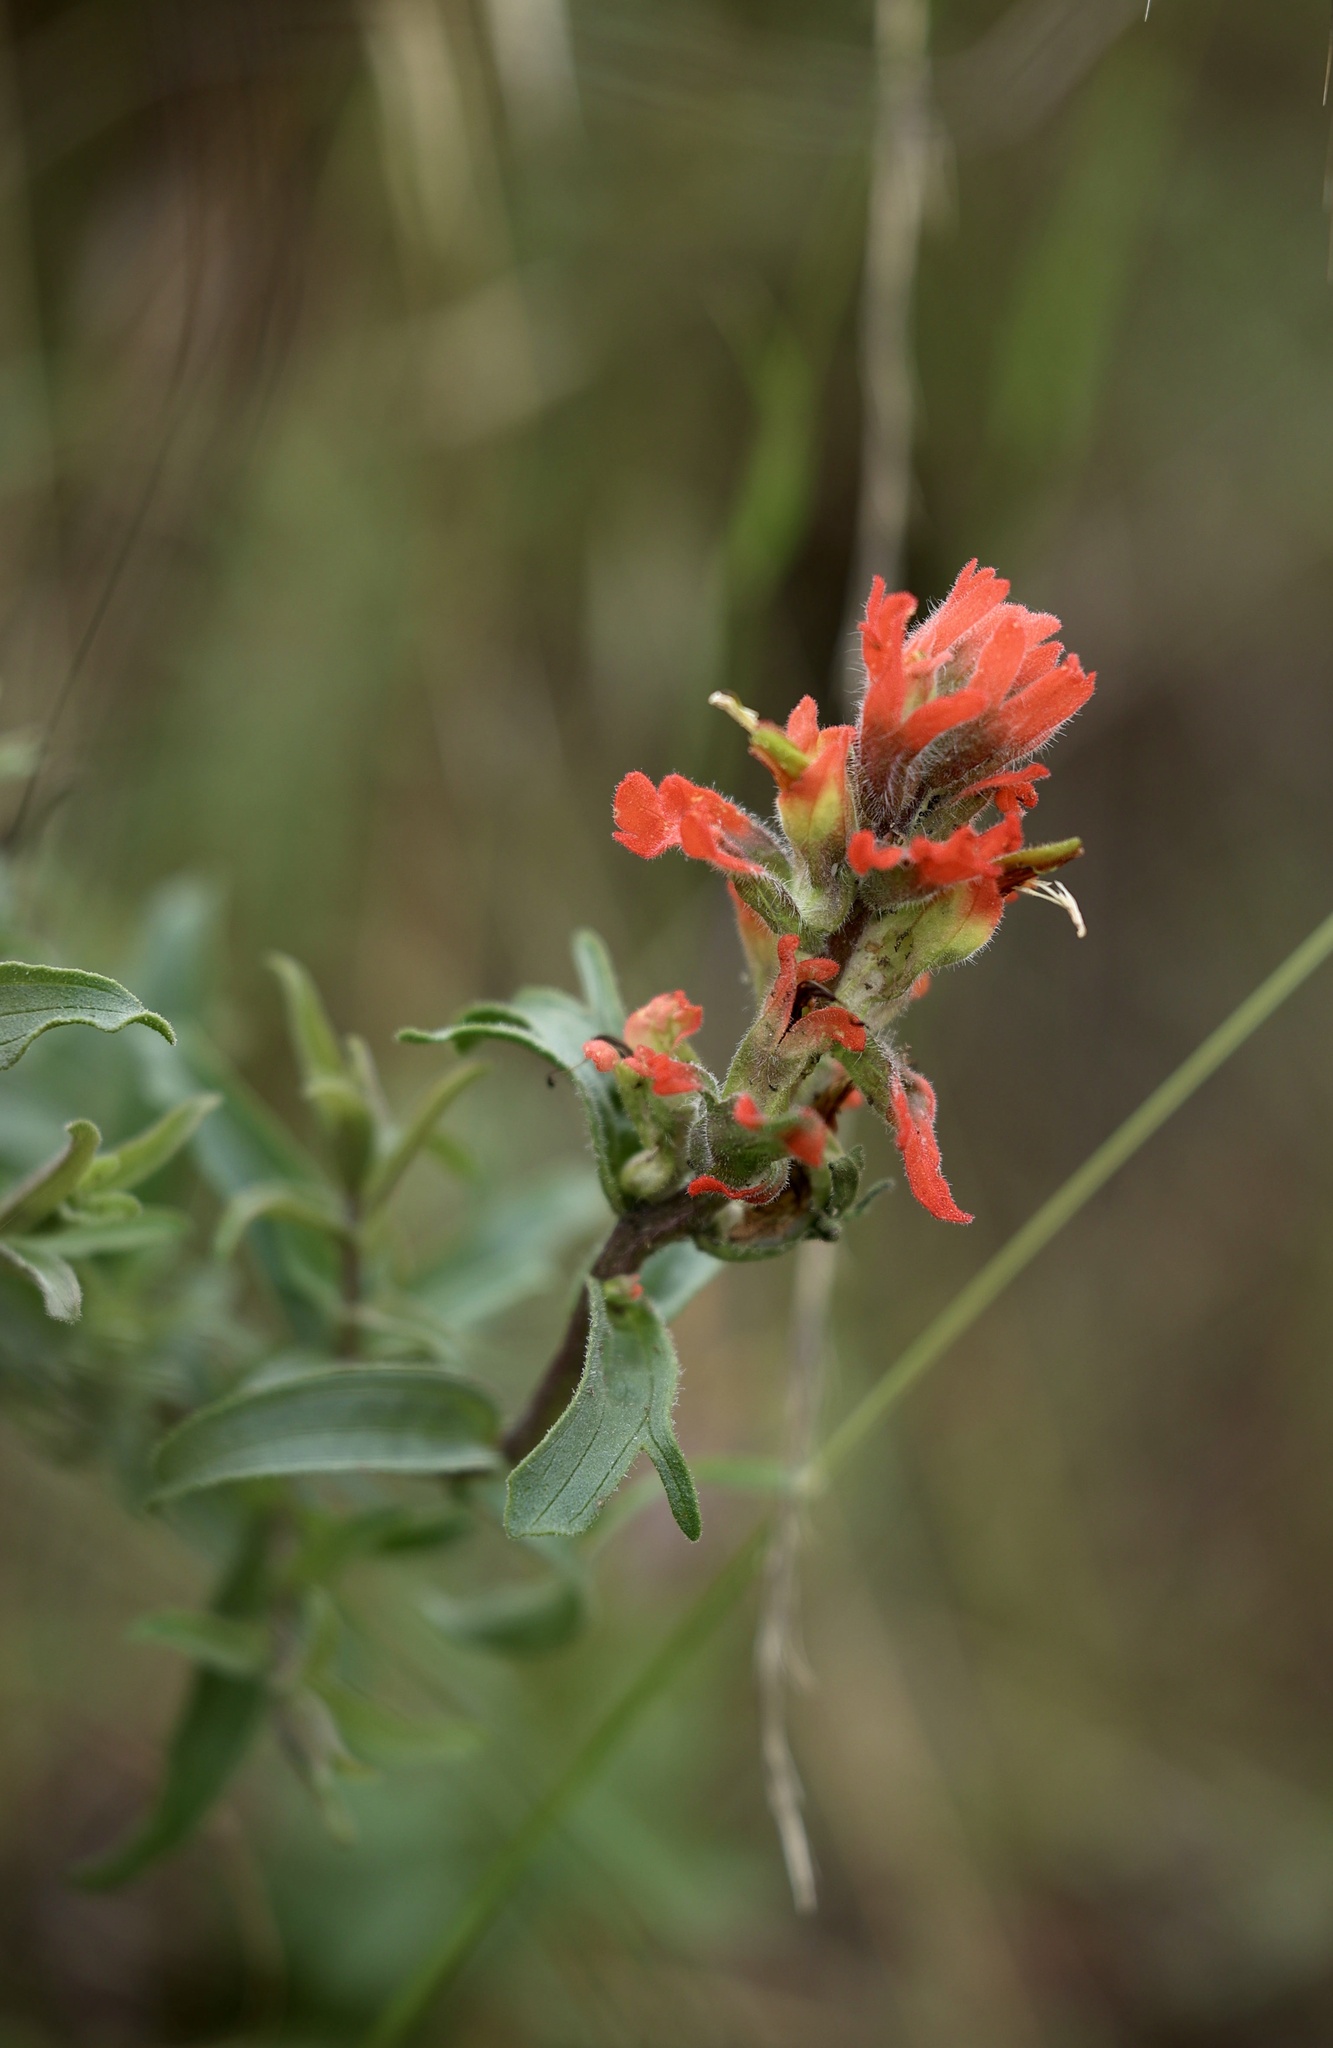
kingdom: Plantae
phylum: Tracheophyta
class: Magnoliopsida
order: Lamiales
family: Orobanchaceae
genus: Castilleja
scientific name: Castilleja affinis
